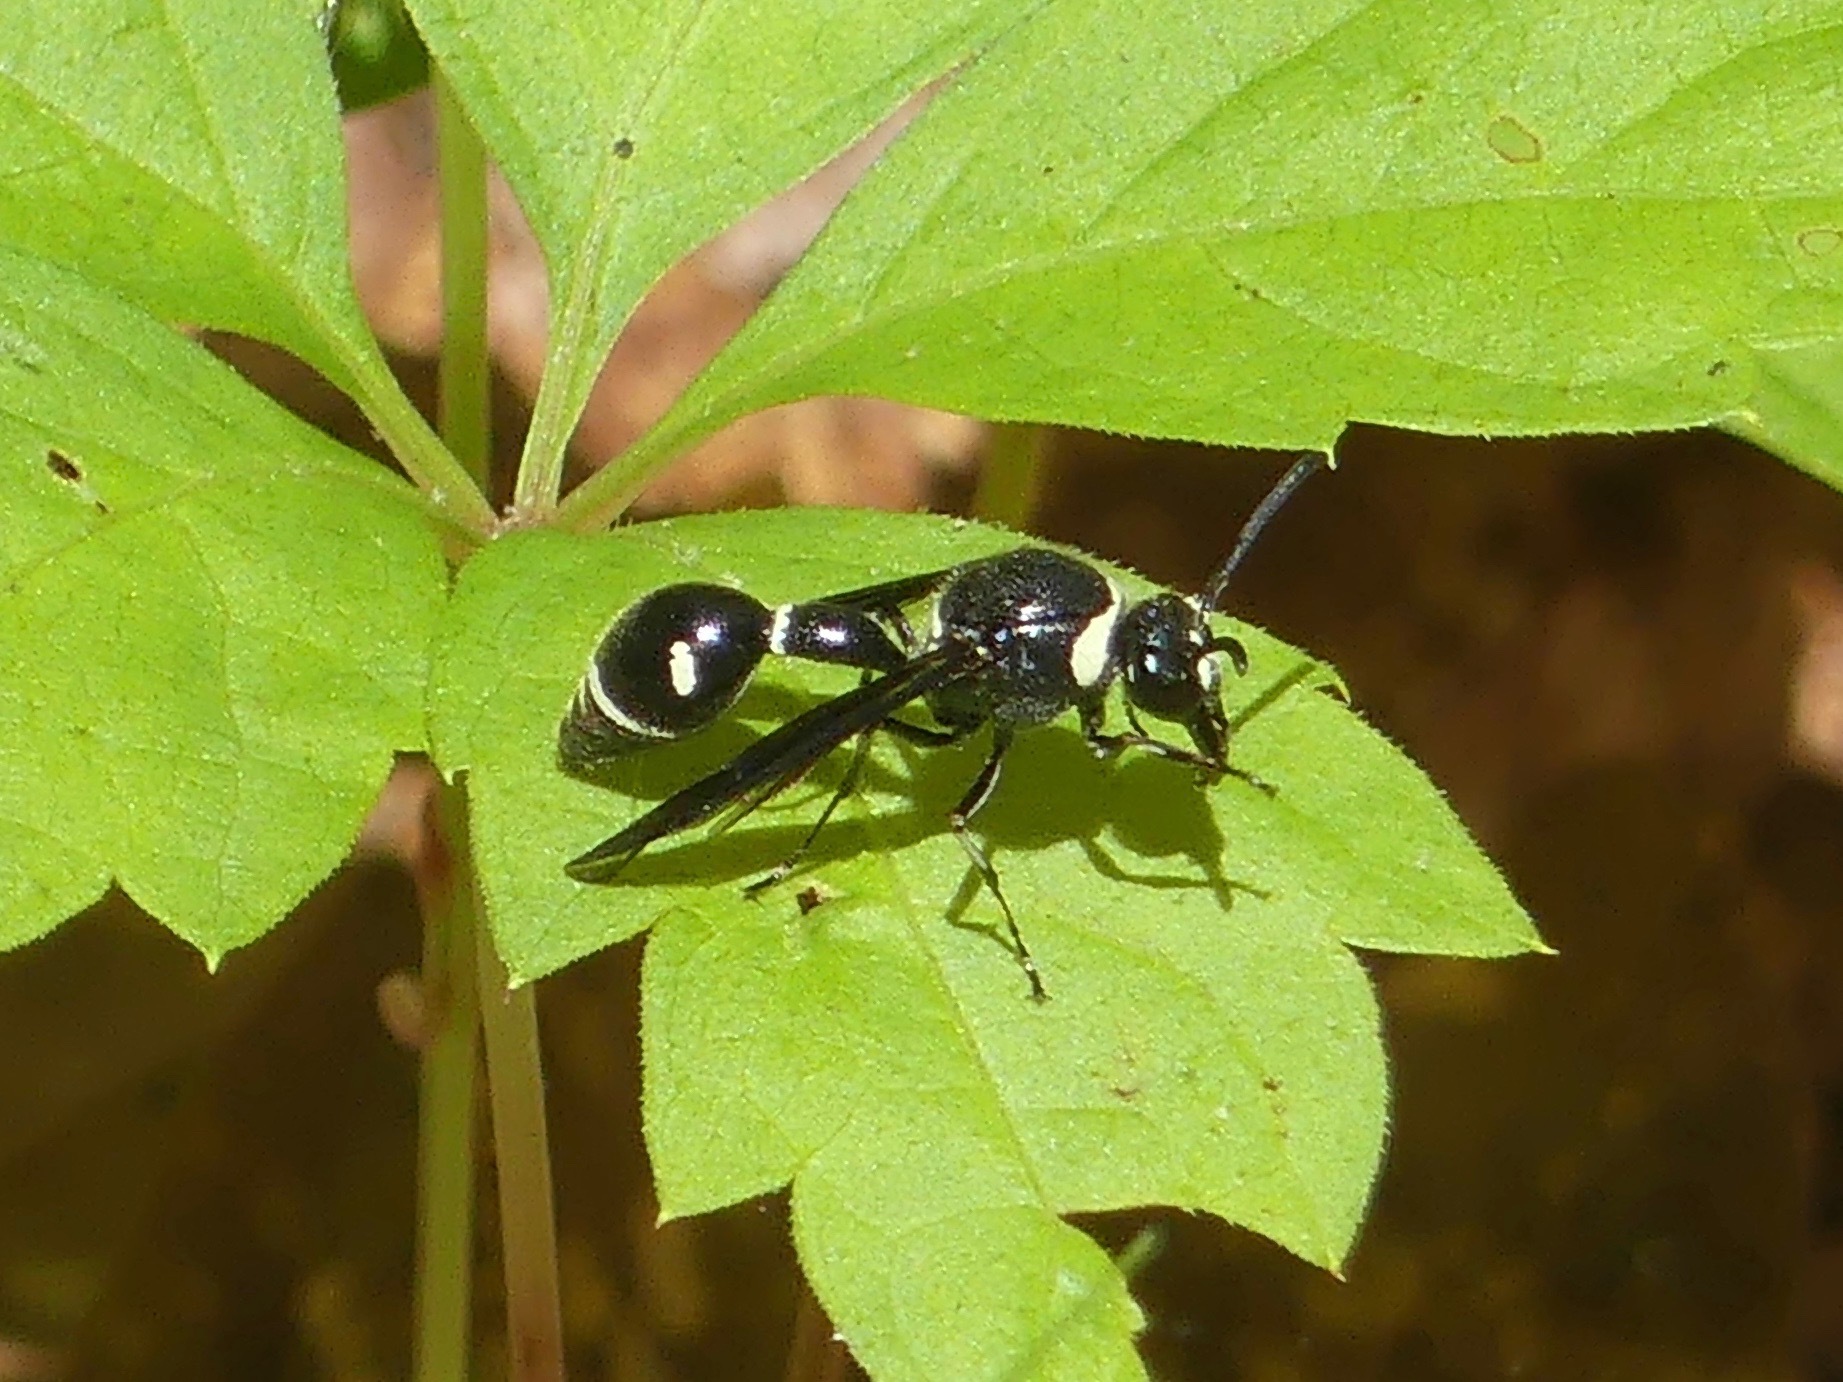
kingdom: Animalia
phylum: Arthropoda
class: Insecta
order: Hymenoptera
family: Vespidae
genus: Eumenes
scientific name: Eumenes fraternus
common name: Fraternal potter wasp
